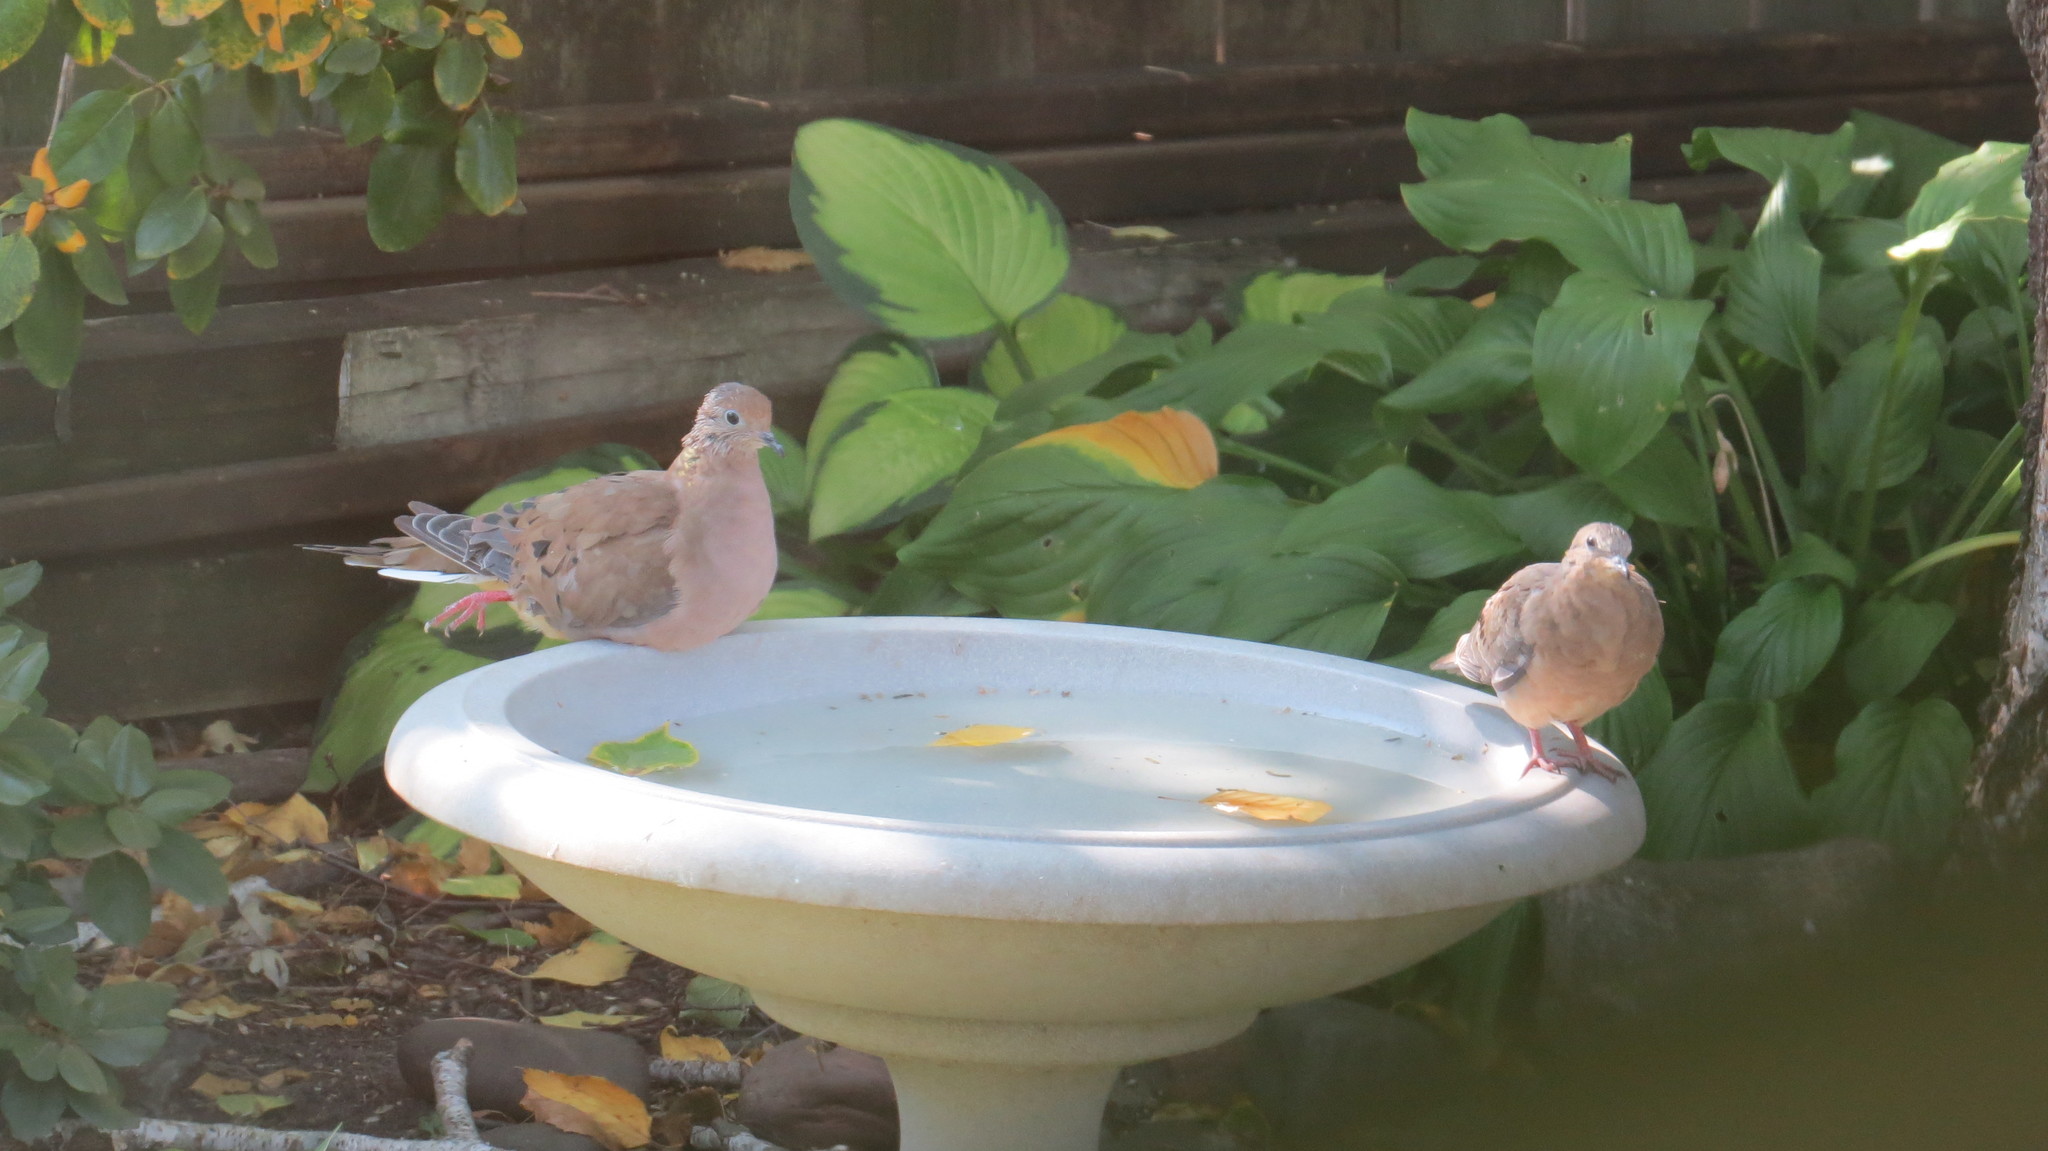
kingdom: Animalia
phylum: Chordata
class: Aves
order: Columbiformes
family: Columbidae
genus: Zenaida
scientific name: Zenaida macroura
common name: Mourning dove
